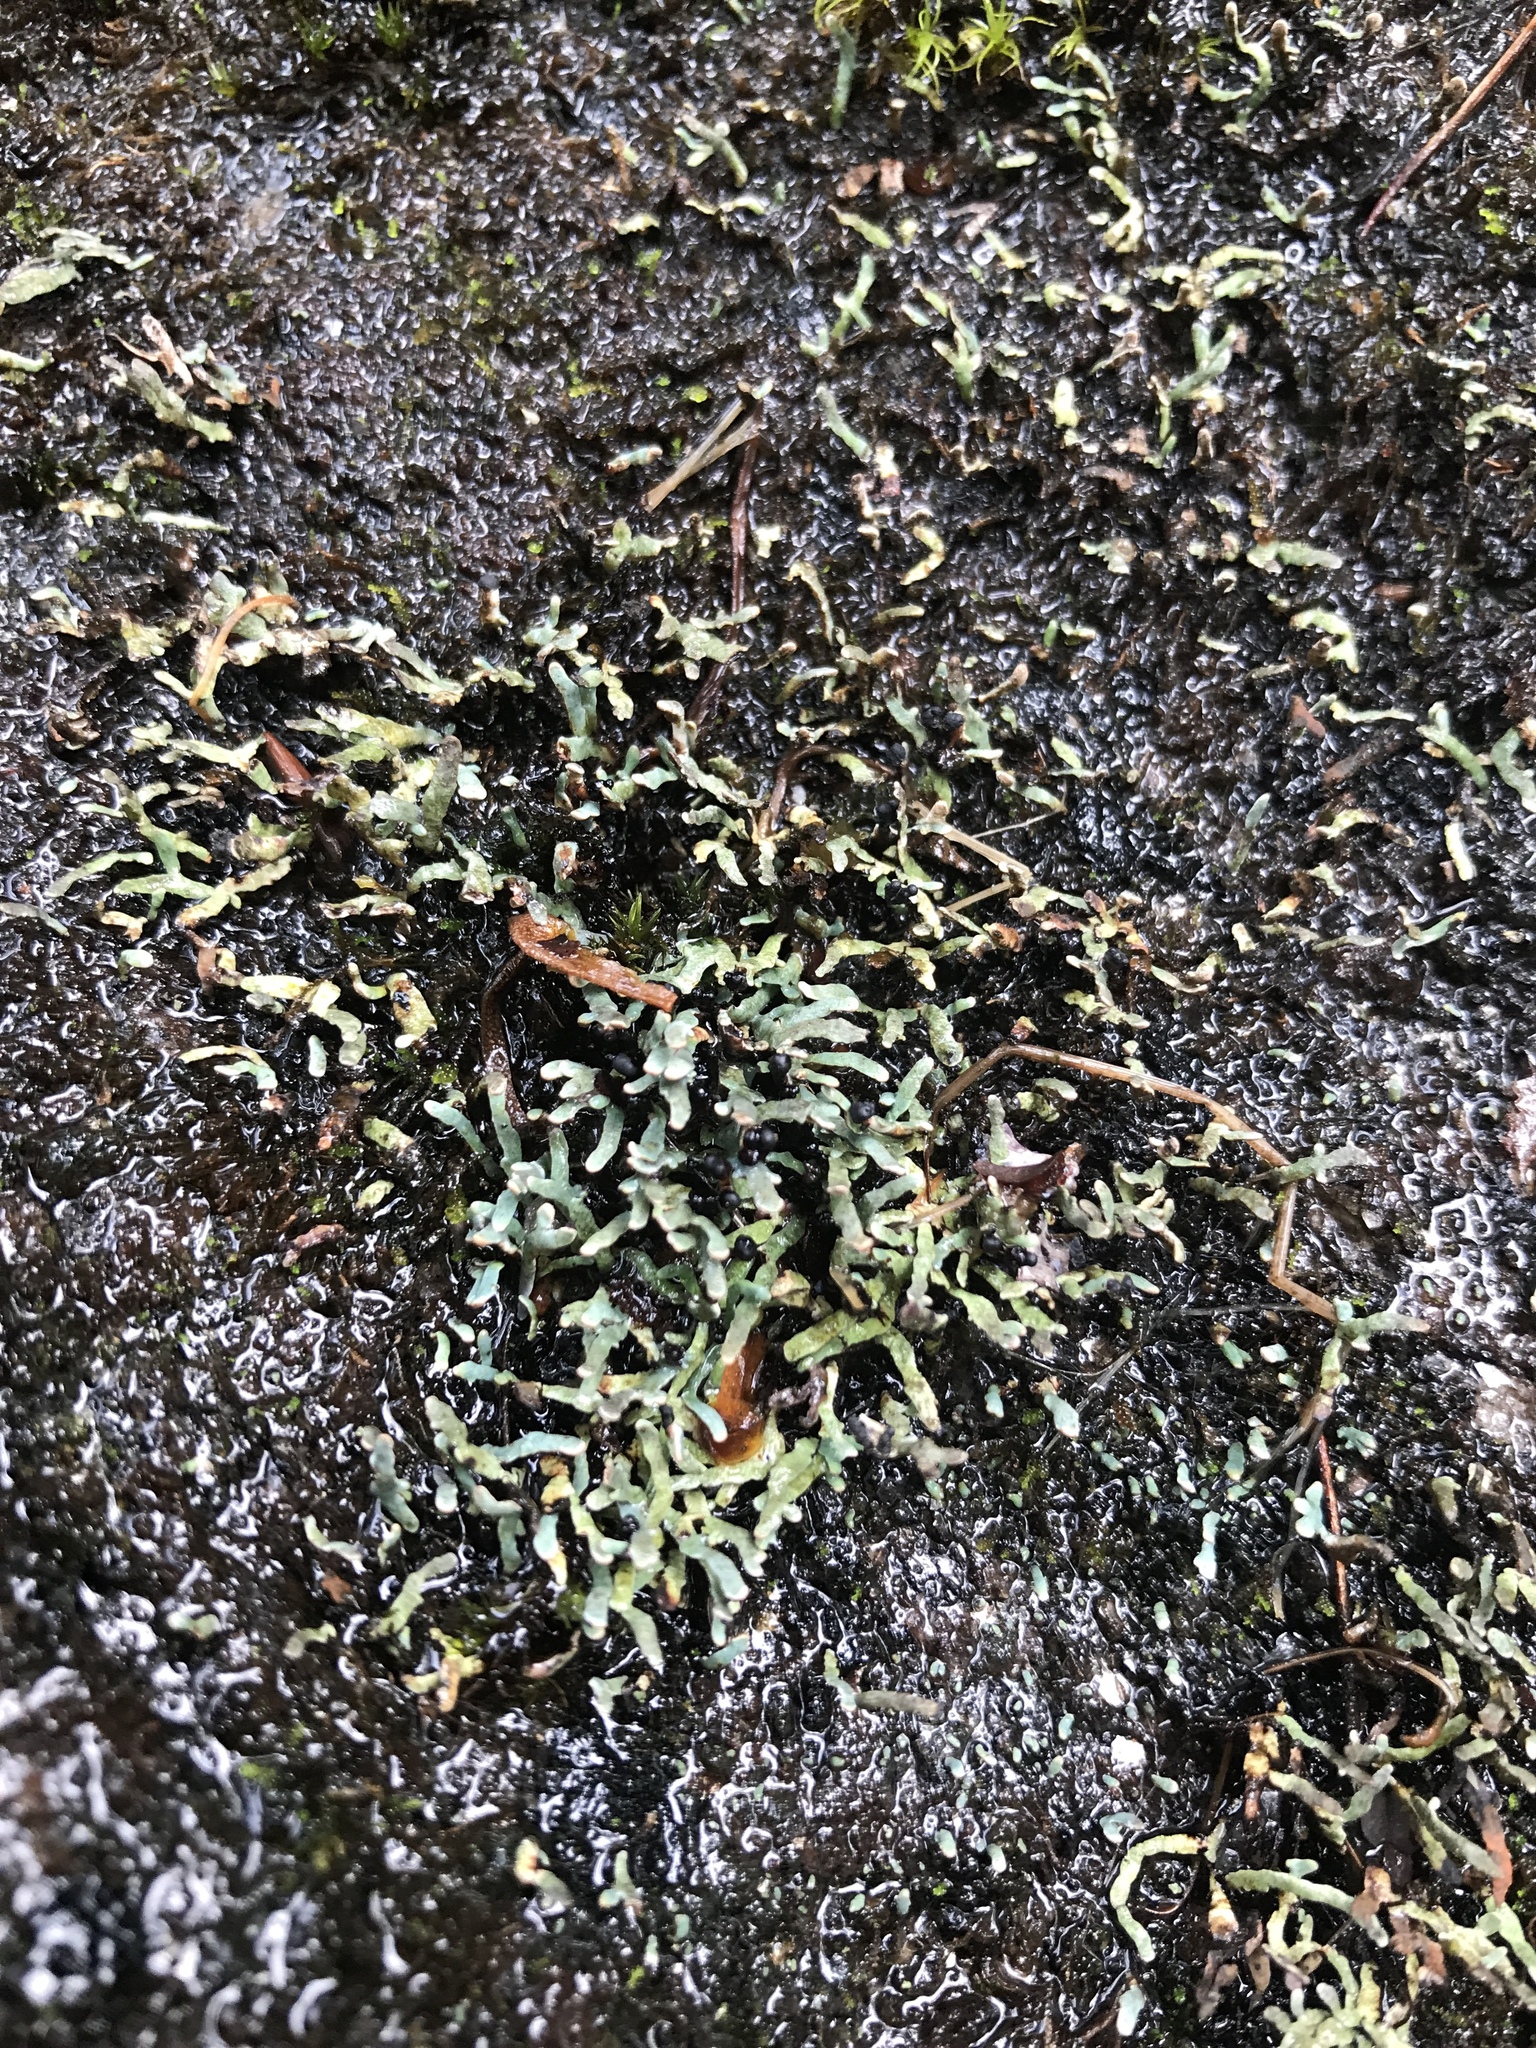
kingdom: Fungi
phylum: Ascomycota
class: Lecanoromycetes
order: Lecanorales
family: Cladoniaceae
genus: Cetradonia
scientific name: Cetradonia linearis
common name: Rock gnome lichen
